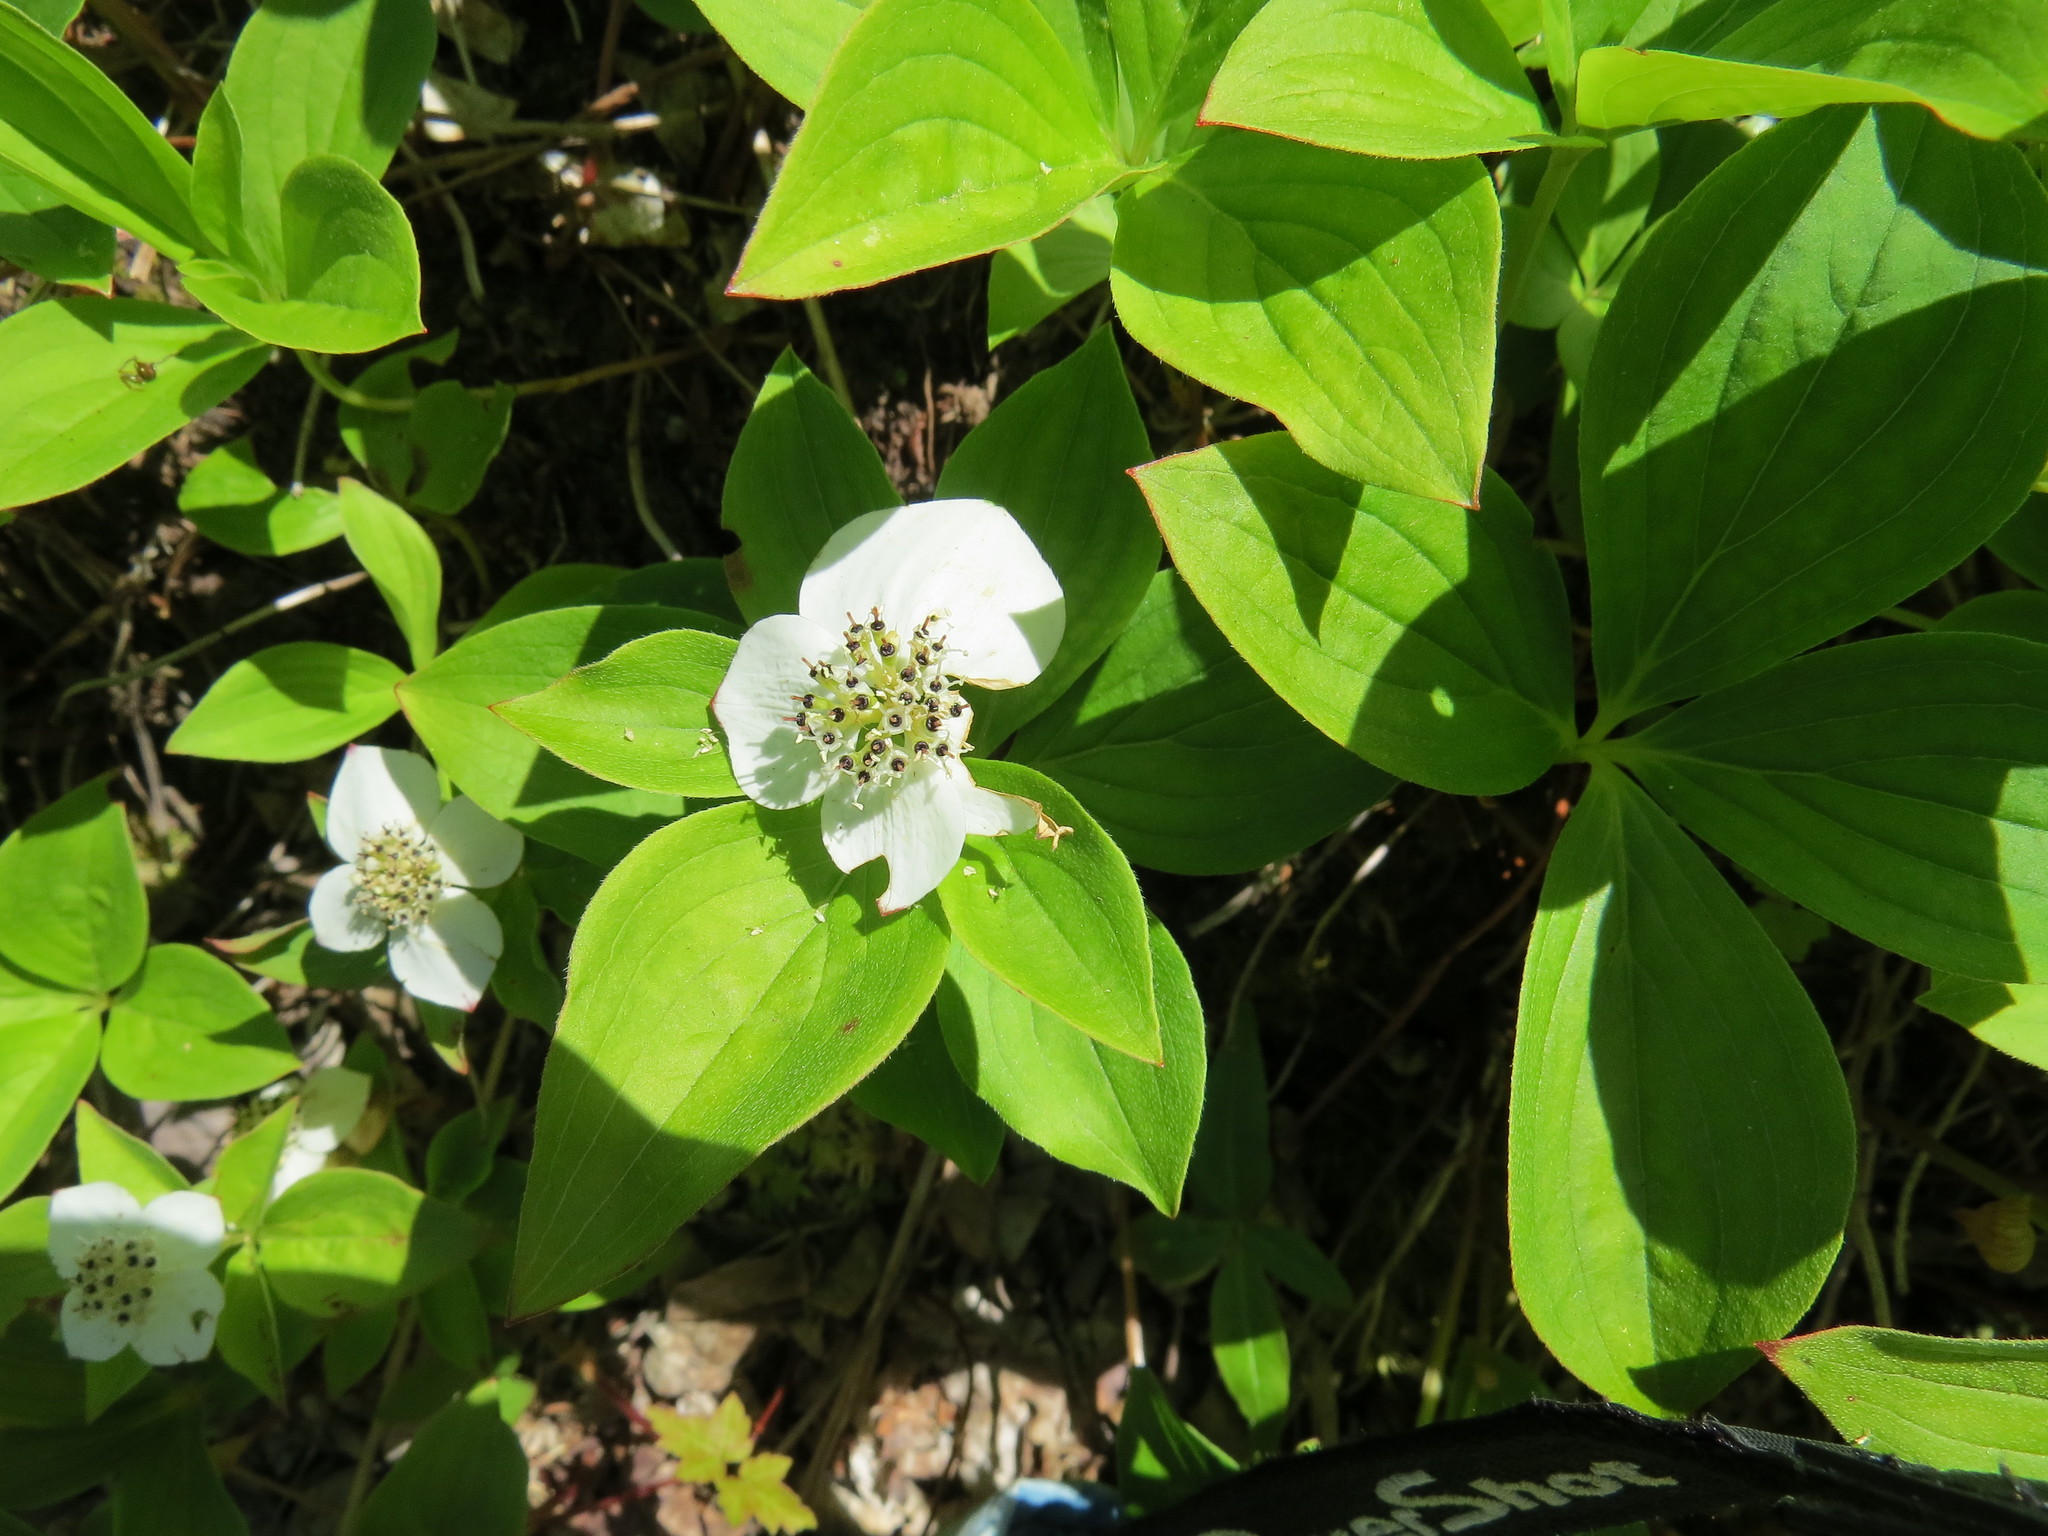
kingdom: Plantae
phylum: Tracheophyta
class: Magnoliopsida
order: Cornales
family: Cornaceae
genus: Cornus
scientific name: Cornus canadensis
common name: Creeping dogwood
